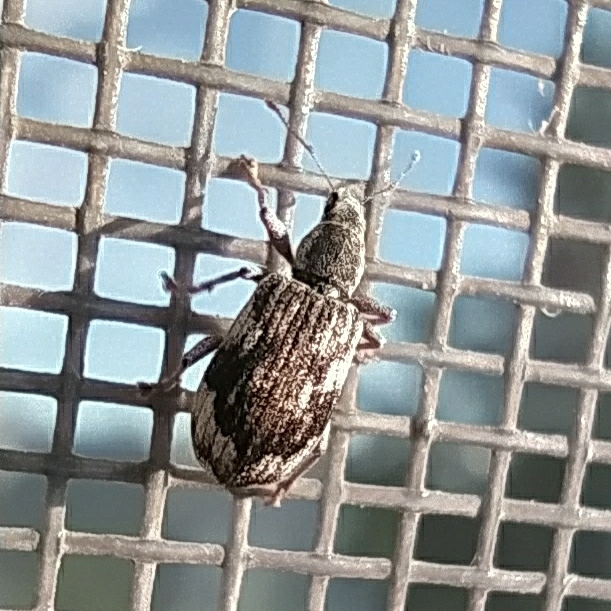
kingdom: Animalia
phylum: Arthropoda
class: Insecta
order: Coleoptera
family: Curculionidae
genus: Polydrusus
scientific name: Polydrusus tereticollis
